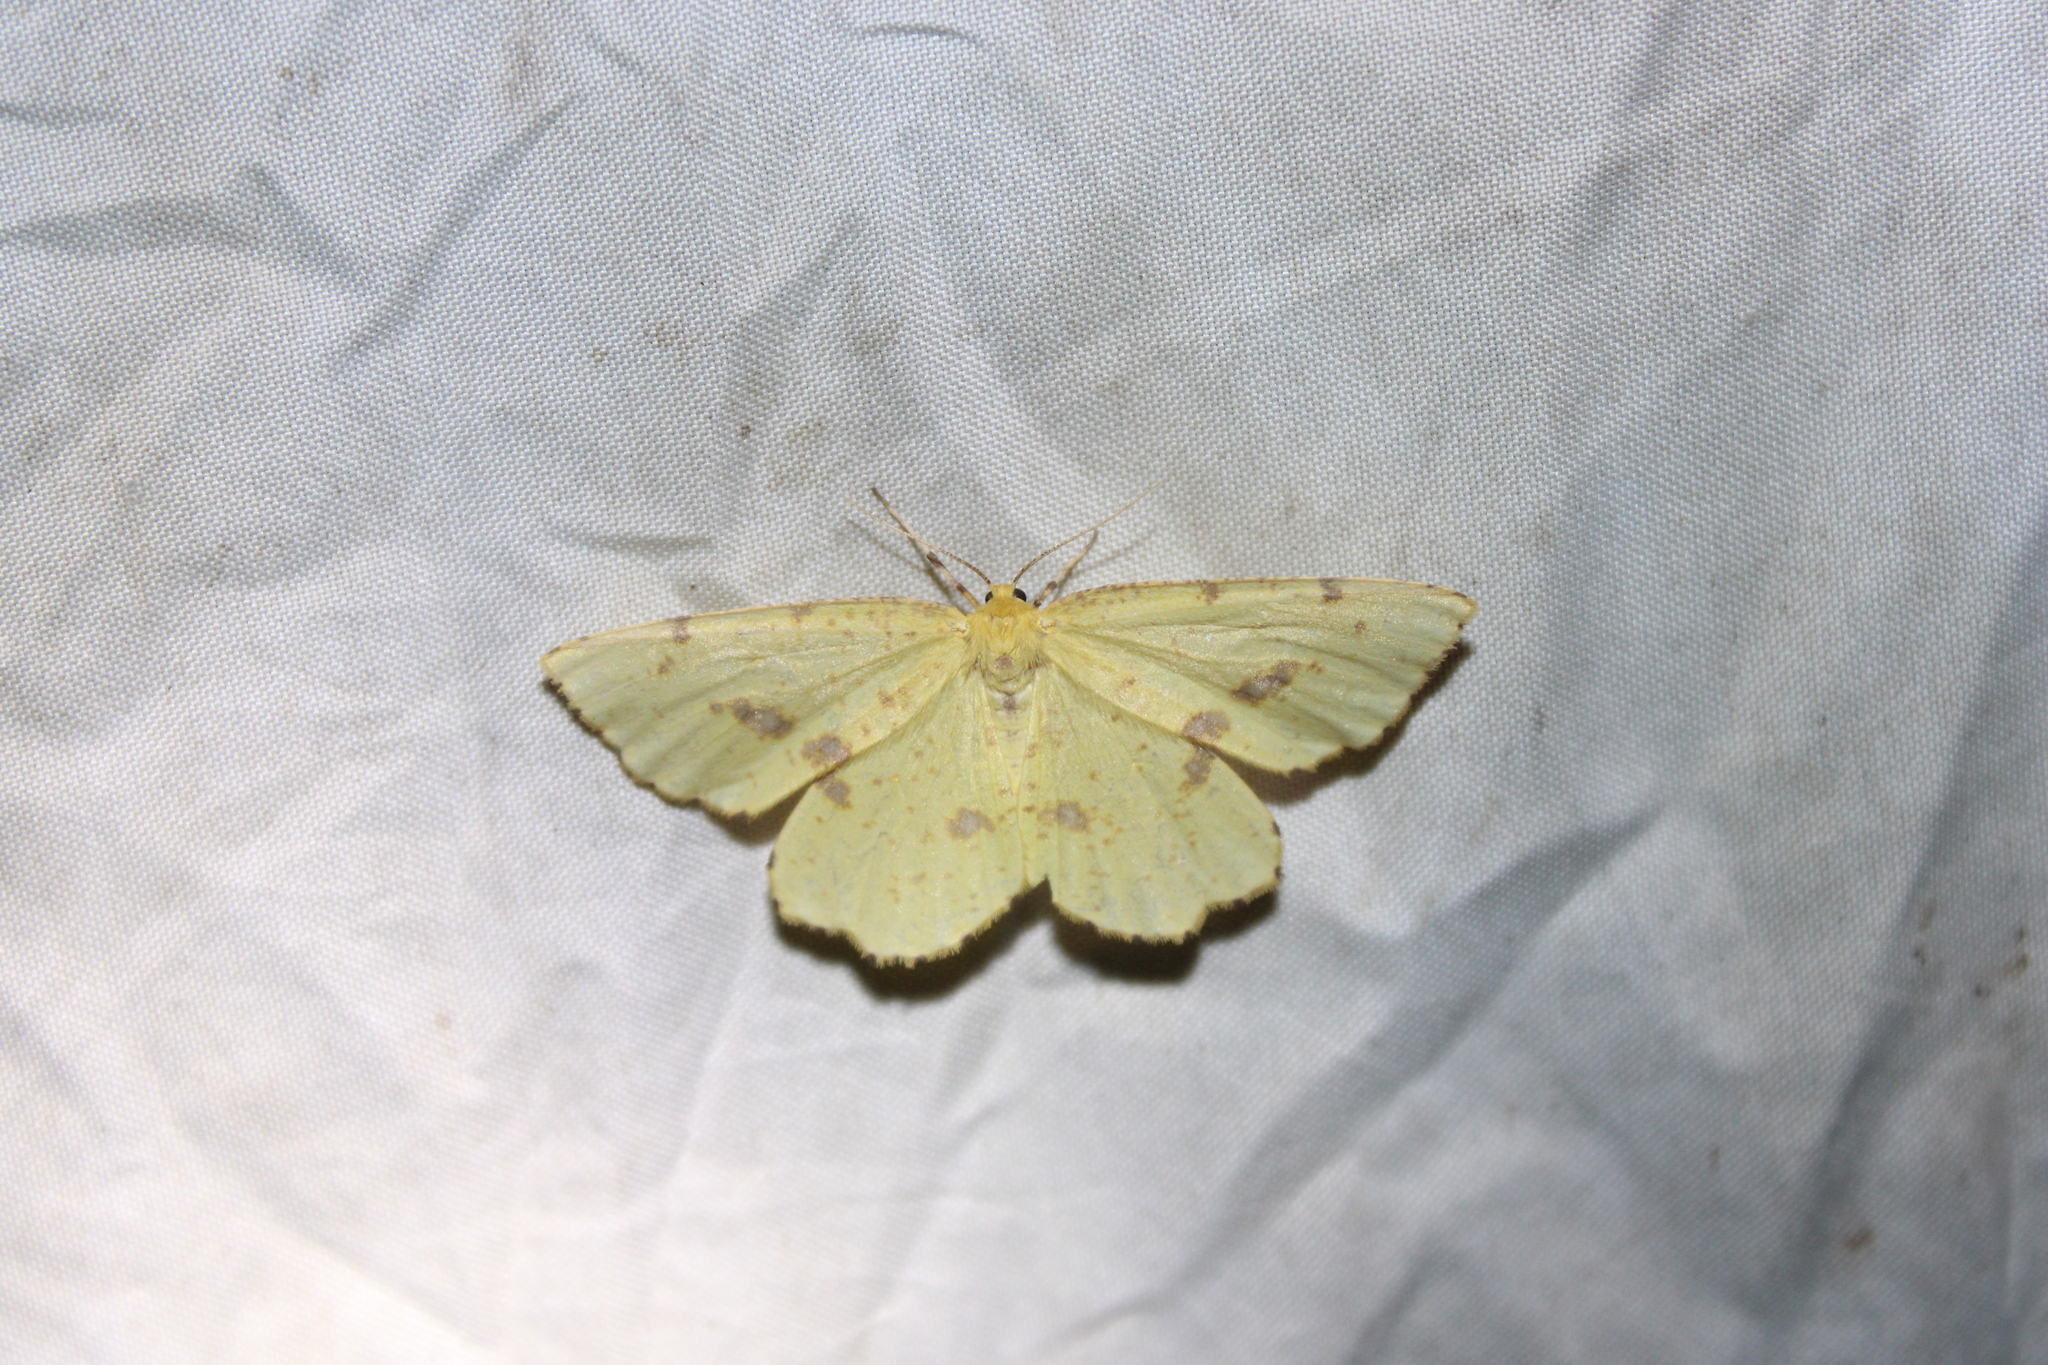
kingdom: Animalia
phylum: Arthropoda
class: Insecta
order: Lepidoptera
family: Geometridae
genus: Xanthotype
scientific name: Xanthotype
